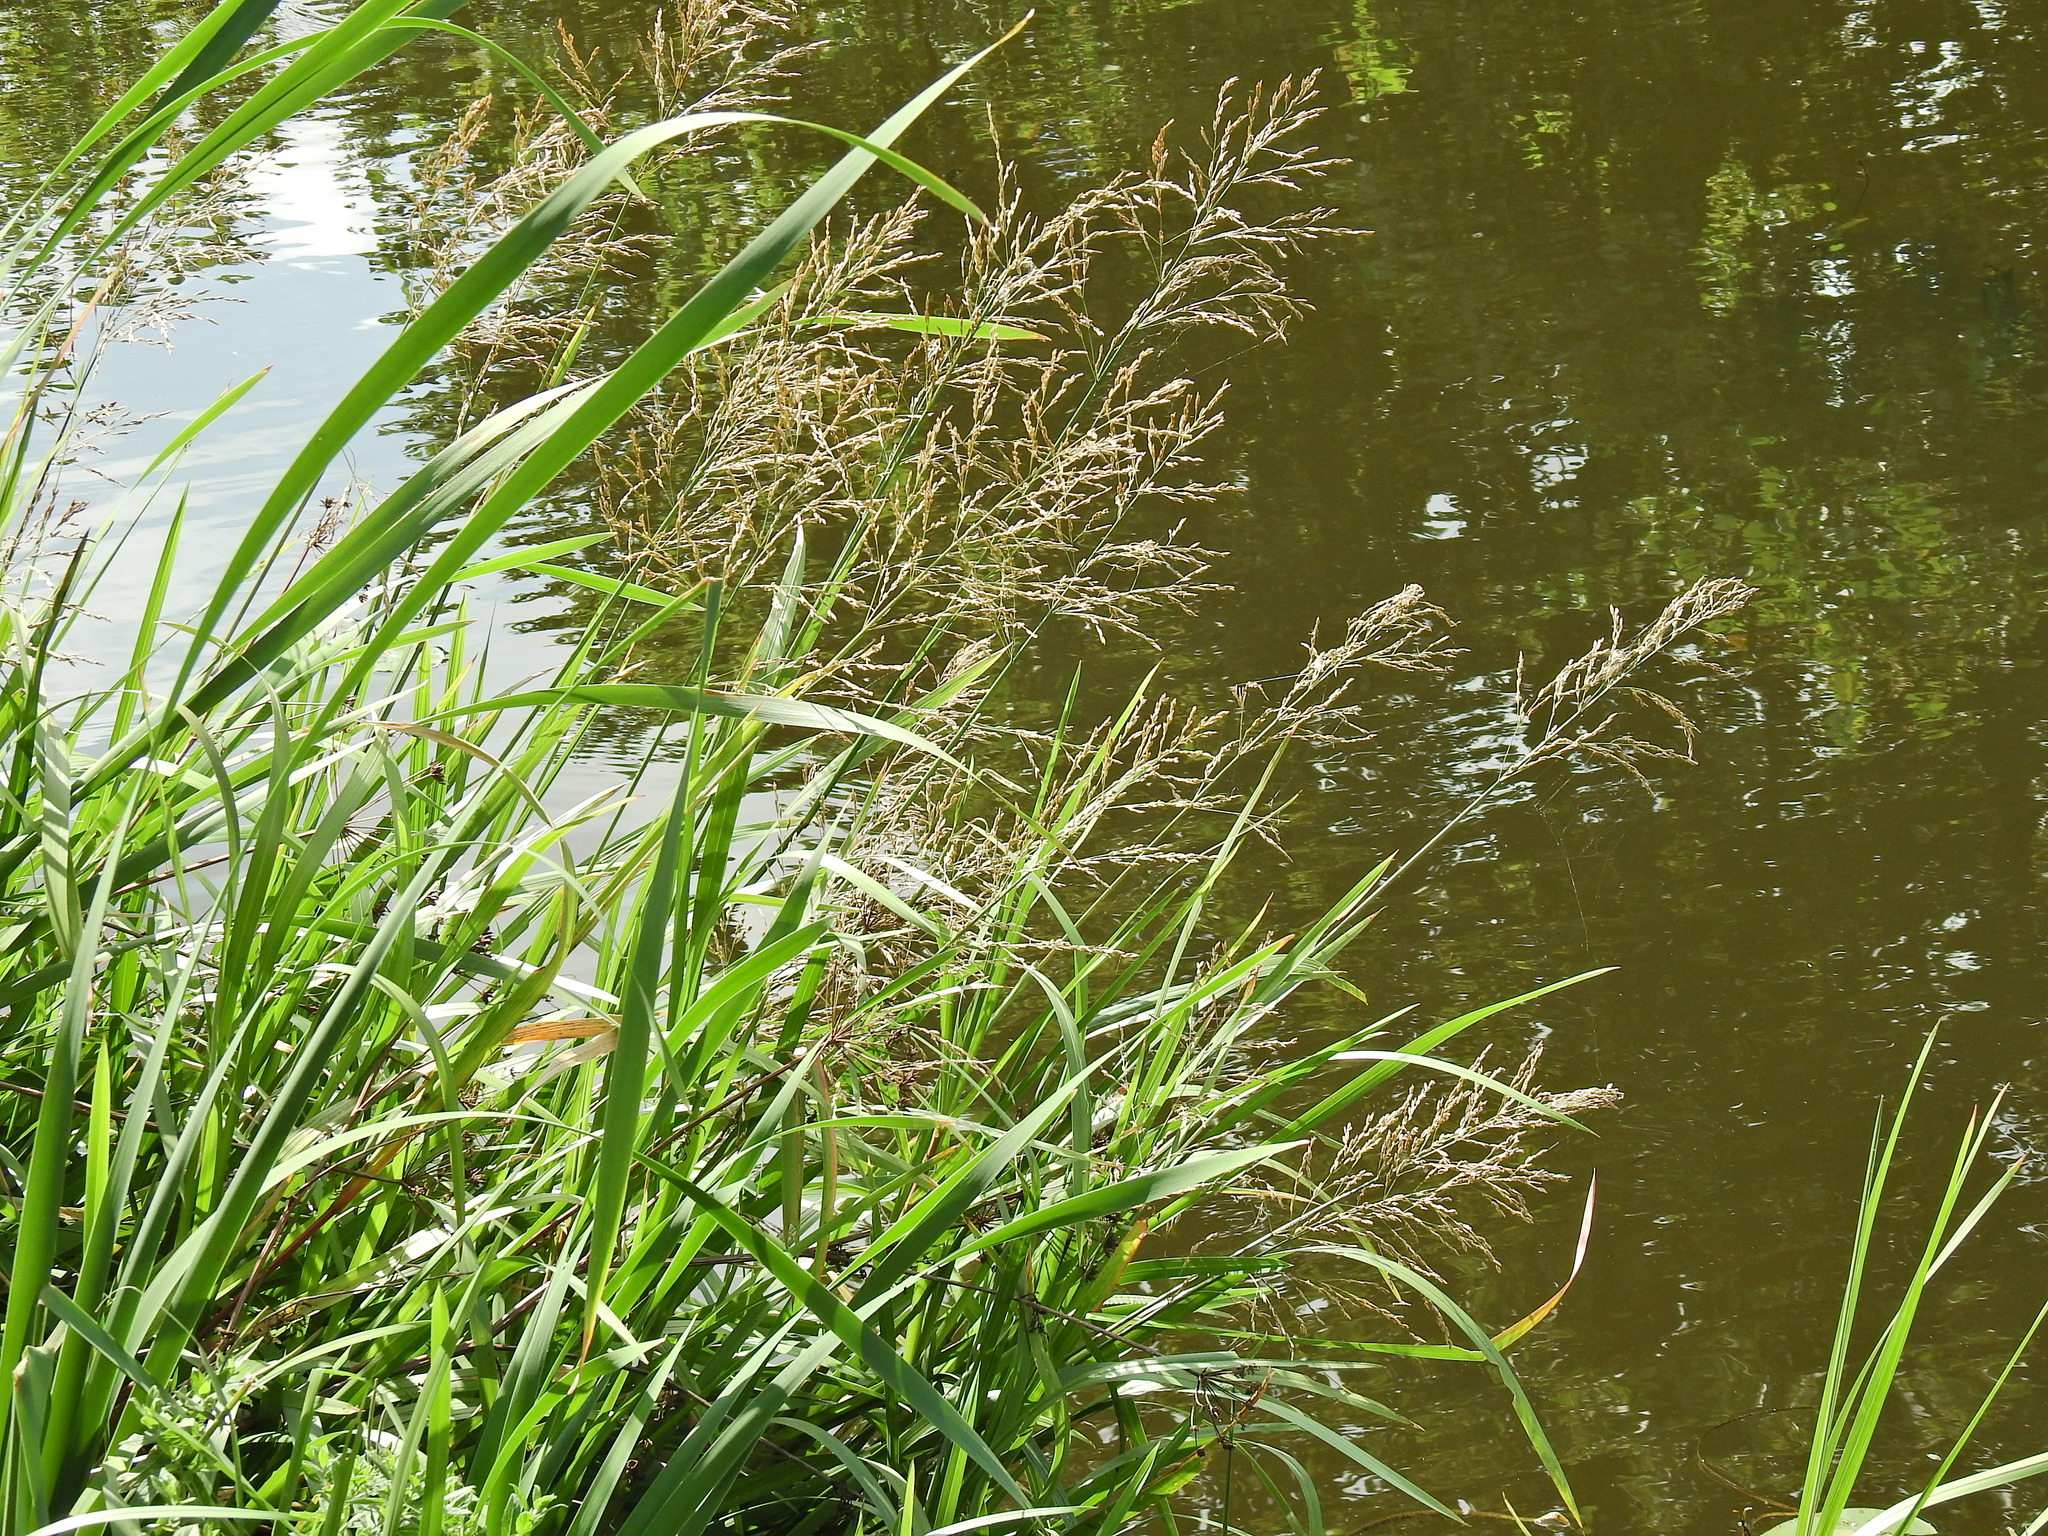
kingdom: Plantae
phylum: Tracheophyta
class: Liliopsida
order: Poales
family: Poaceae
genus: Glyceria
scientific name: Glyceria maxima
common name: Reed mannagrass
